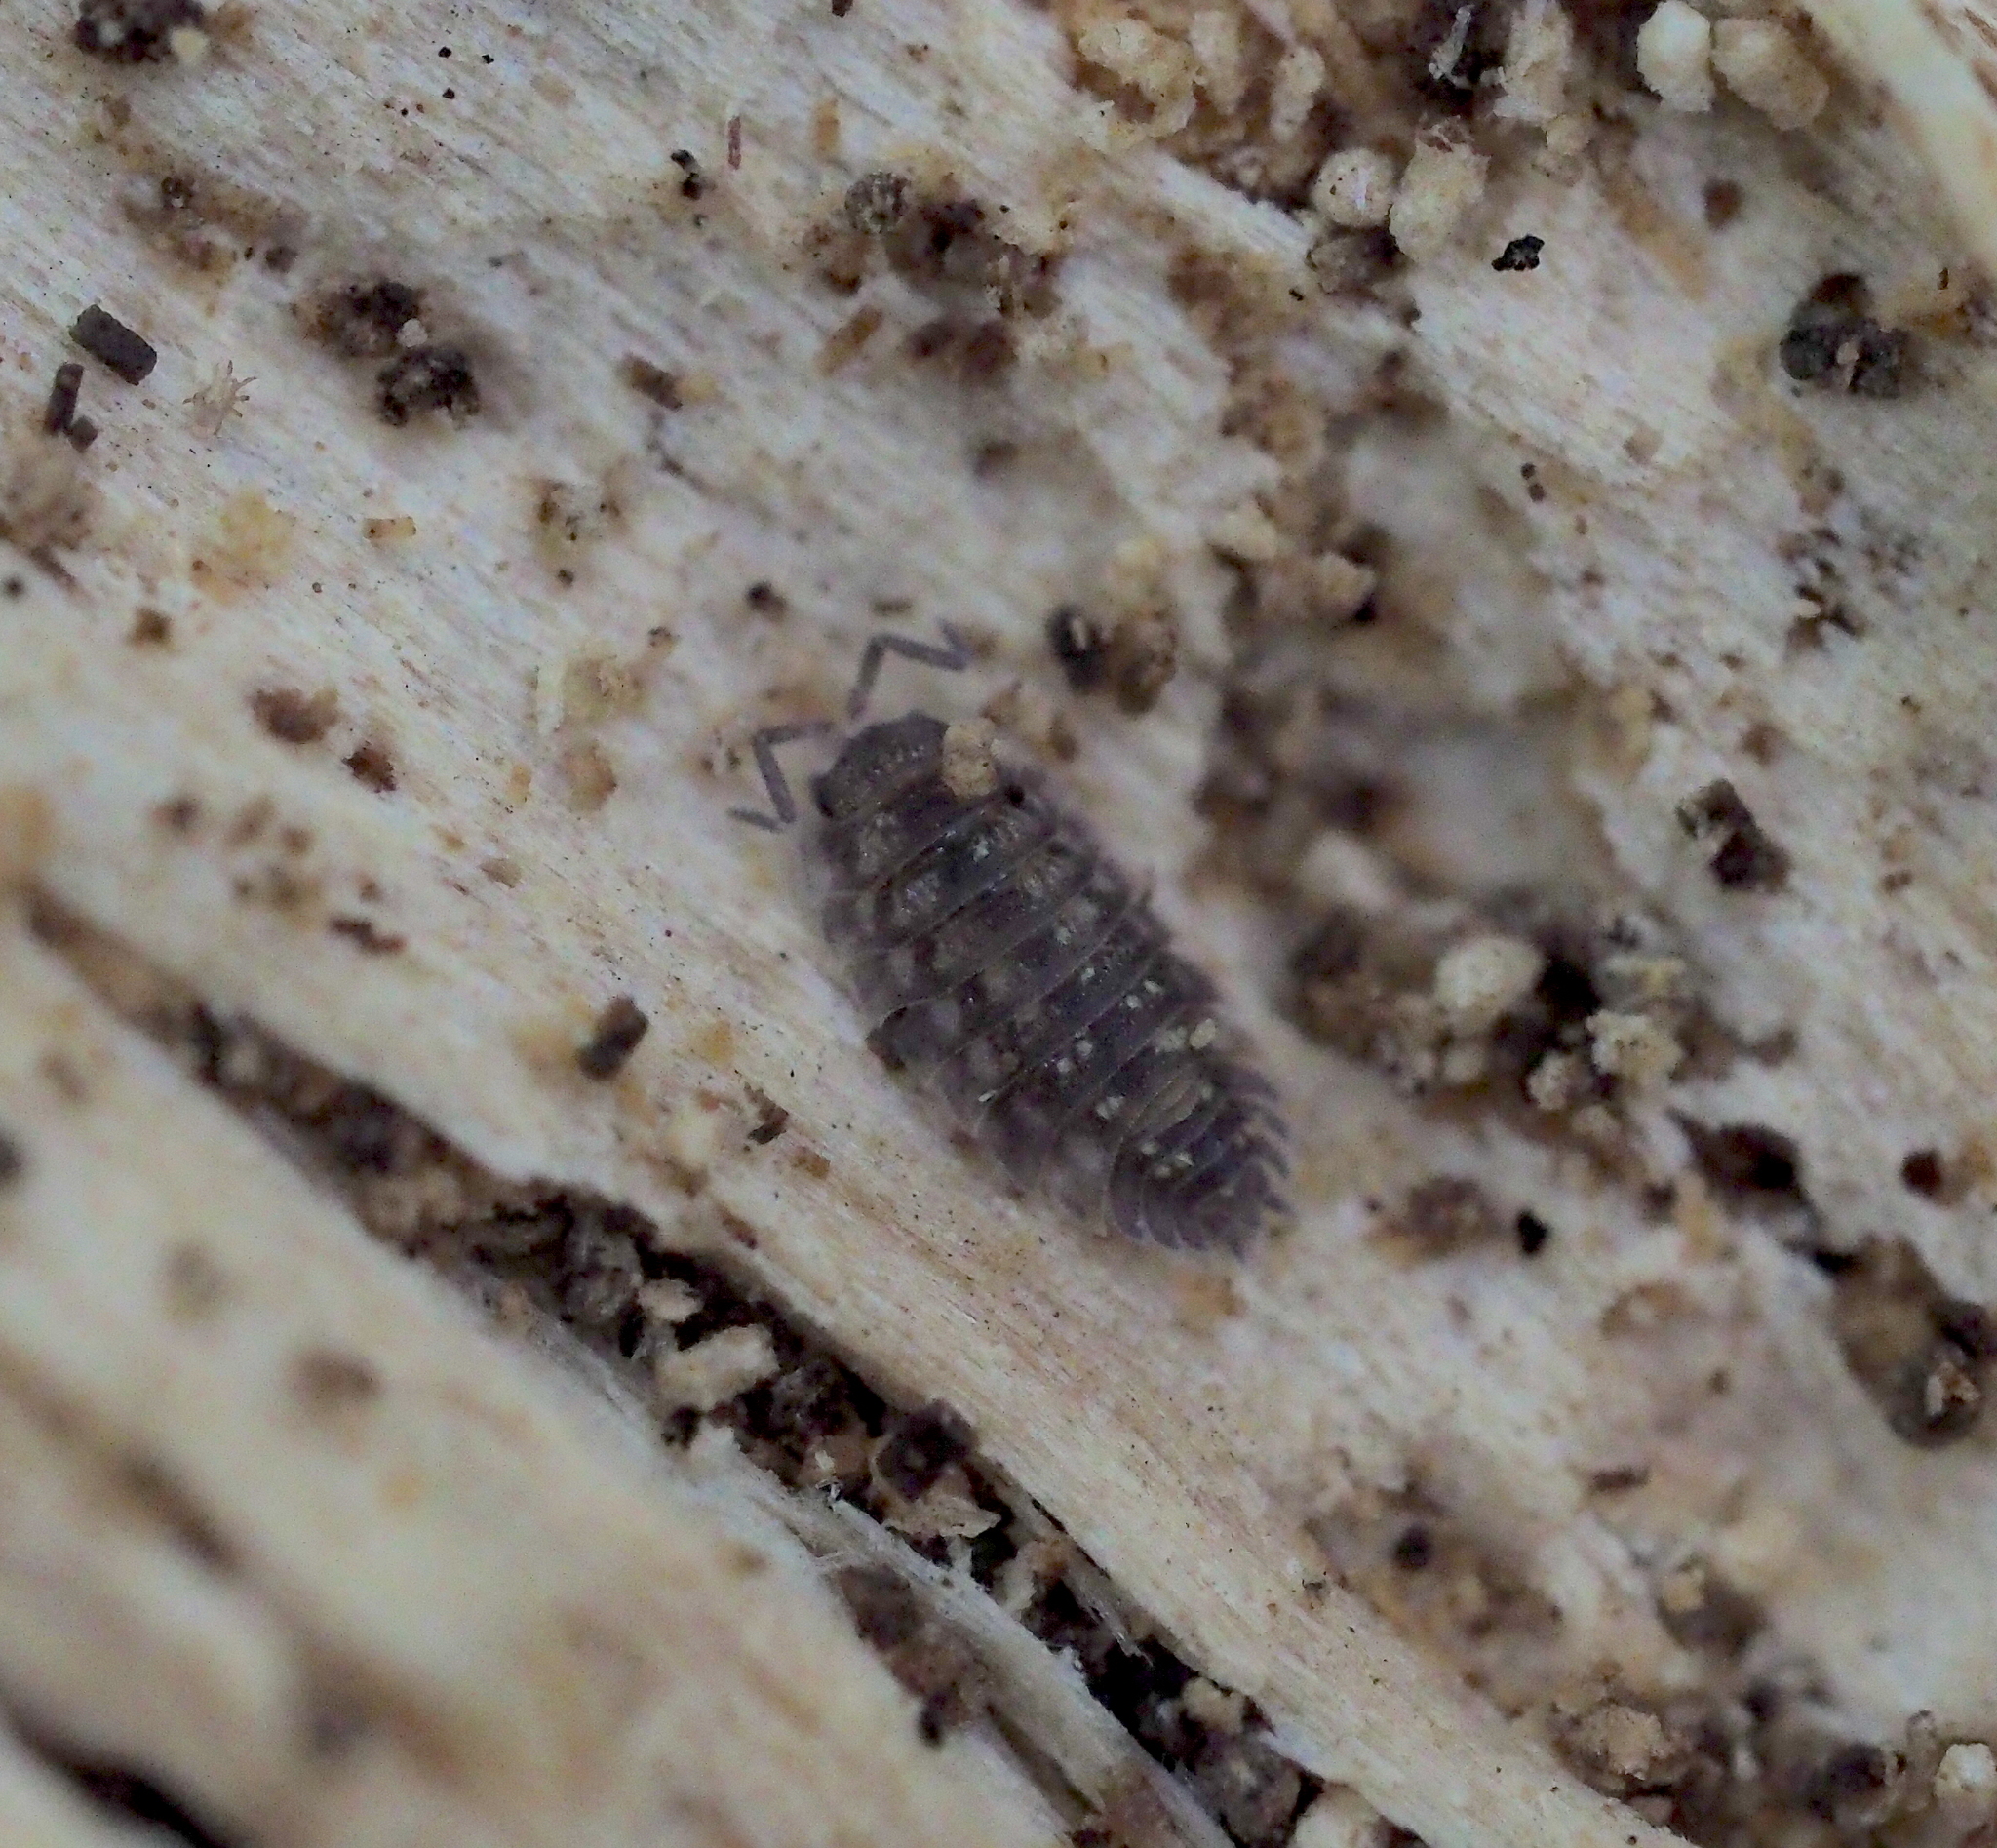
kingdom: Animalia
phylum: Arthropoda
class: Malacostraca
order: Isopoda
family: Oniscidae
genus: Oniscus
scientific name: Oniscus asellus
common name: Common shiny woodlouse
